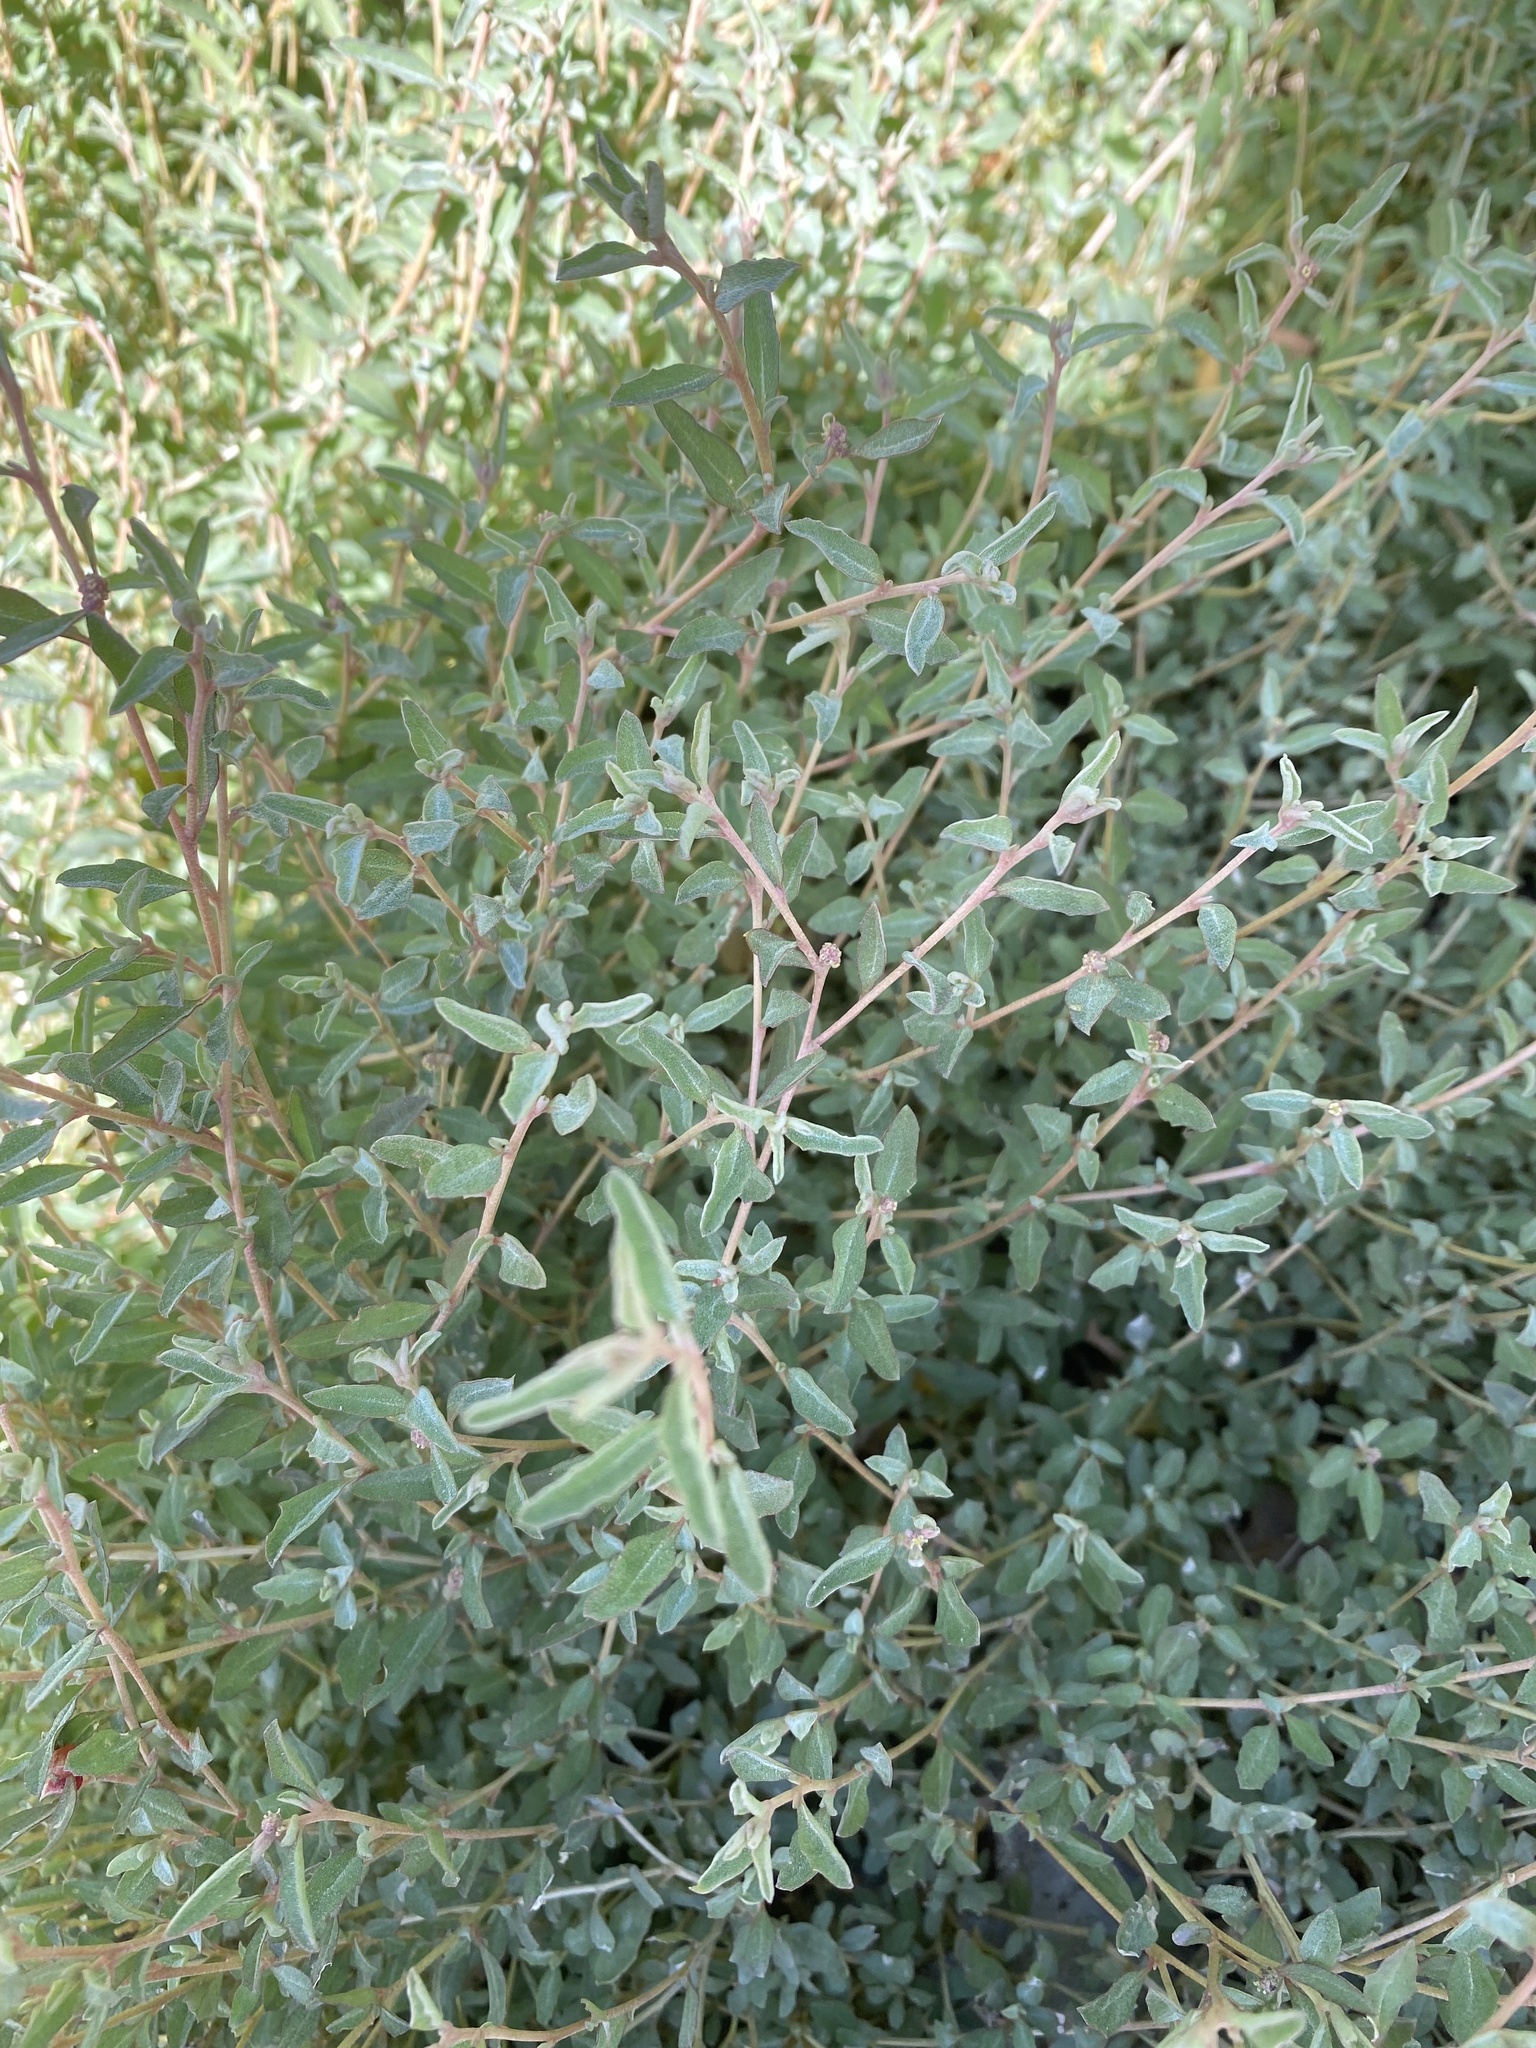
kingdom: Plantae
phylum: Tracheophyta
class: Magnoliopsida
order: Caryophyllales
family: Amaranthaceae
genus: Atriplex
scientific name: Atriplex semibaccata
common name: Australian saltbush
